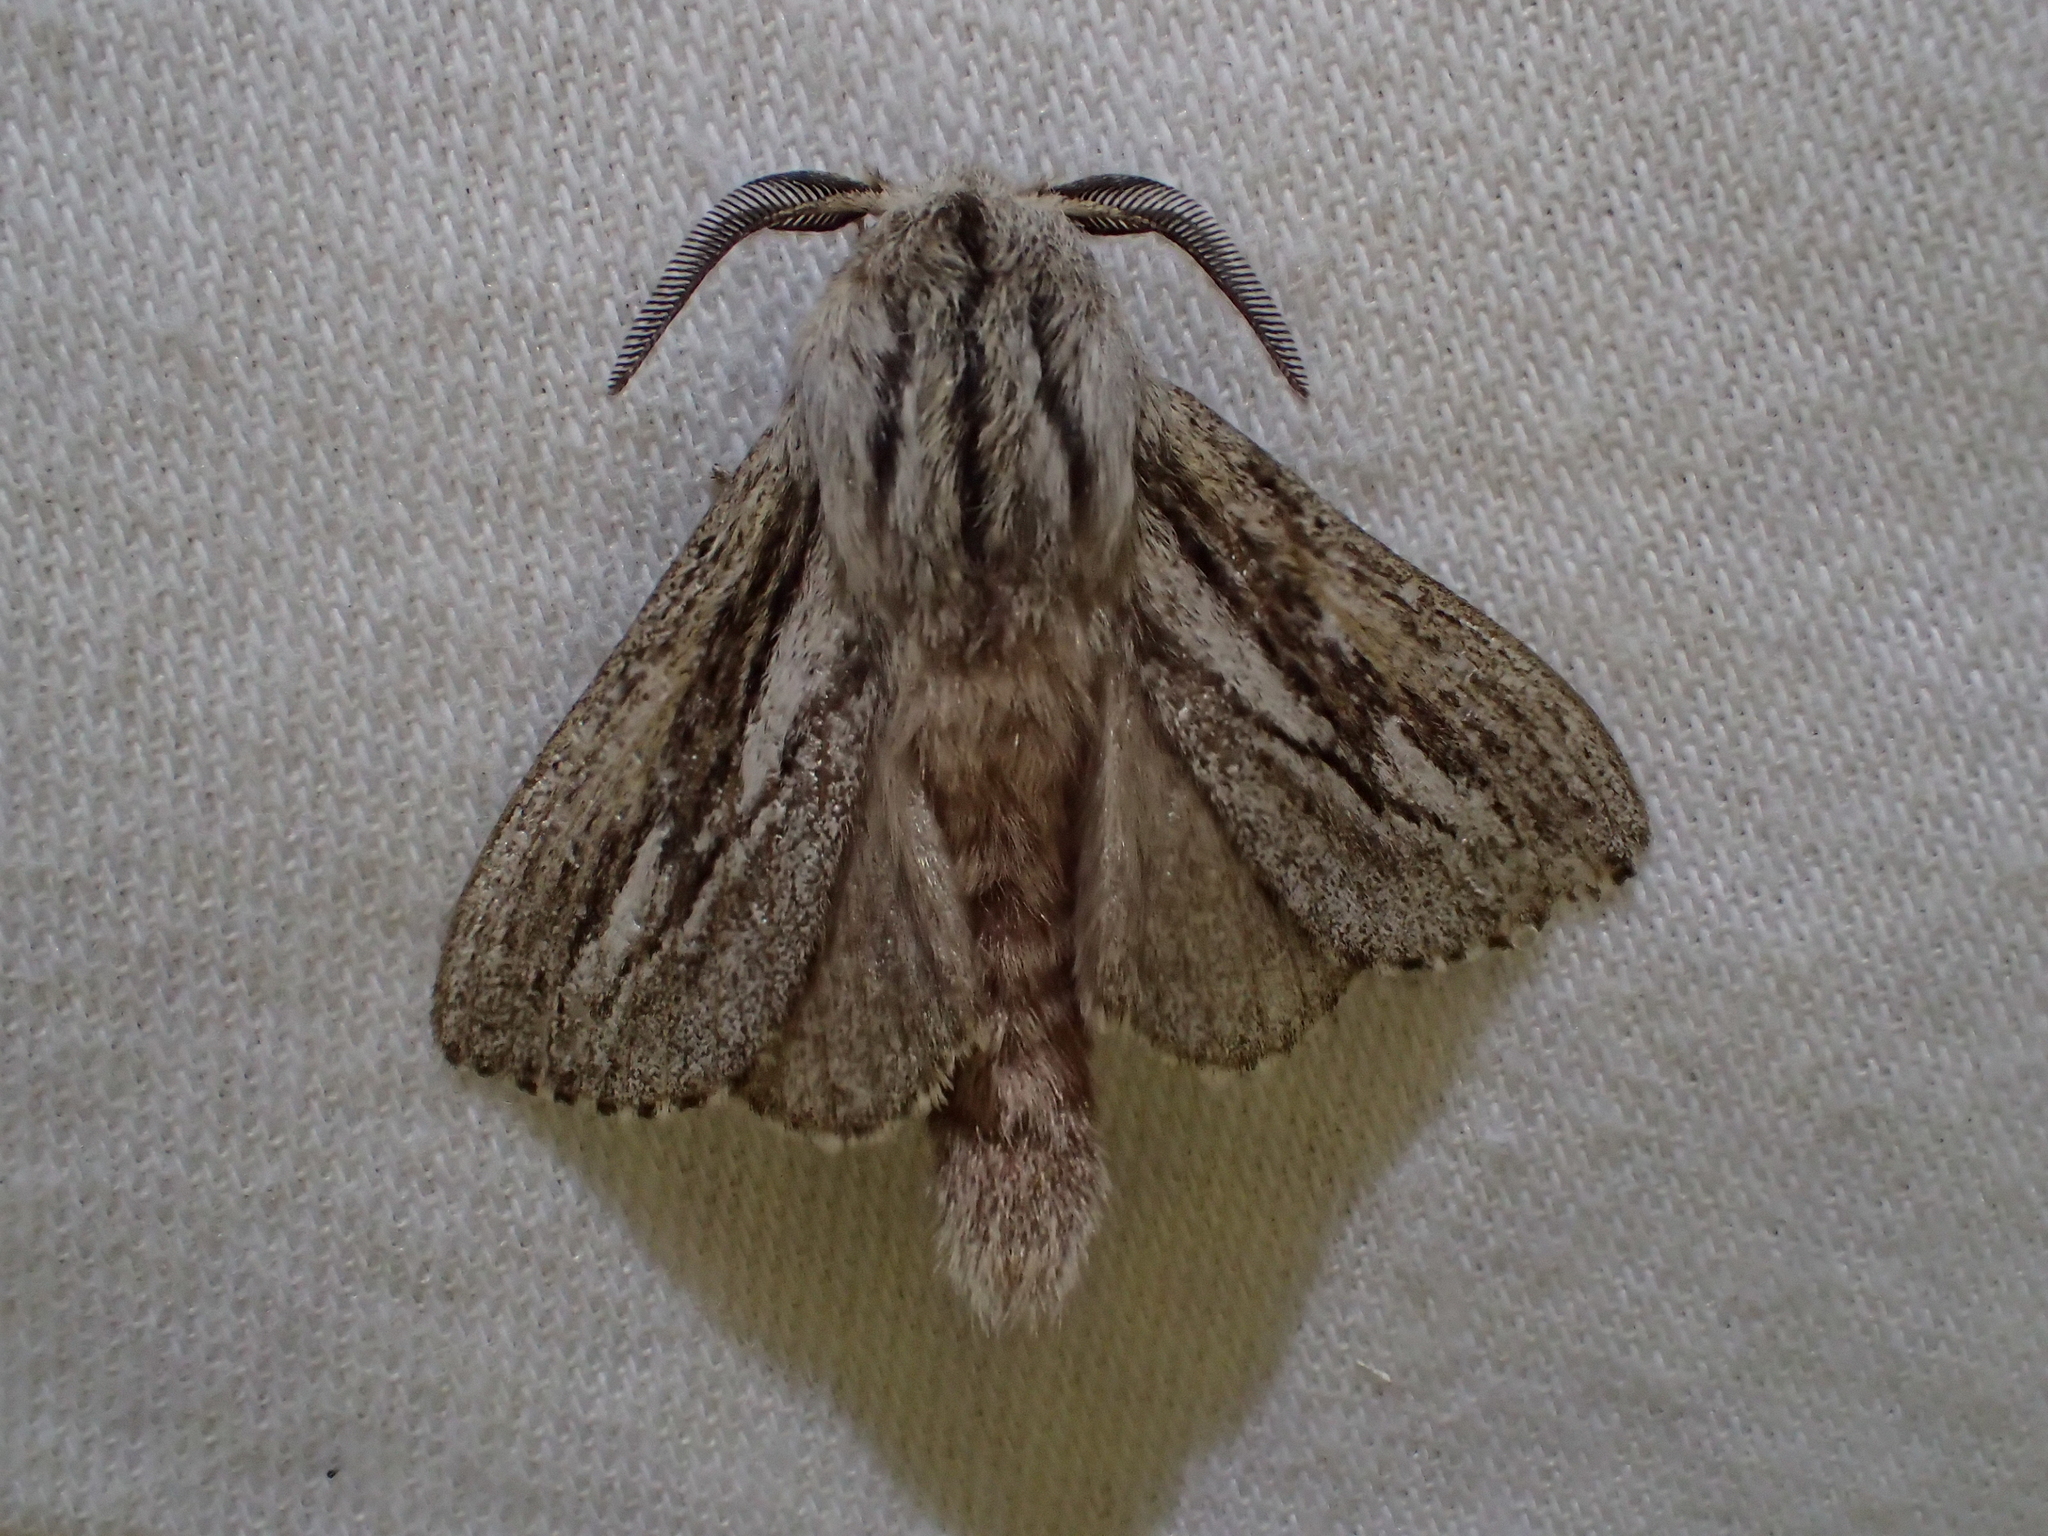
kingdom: Animalia
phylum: Arthropoda
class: Insecta
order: Lepidoptera
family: Lasiocampidae
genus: Gufria
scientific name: Gufria limosa
